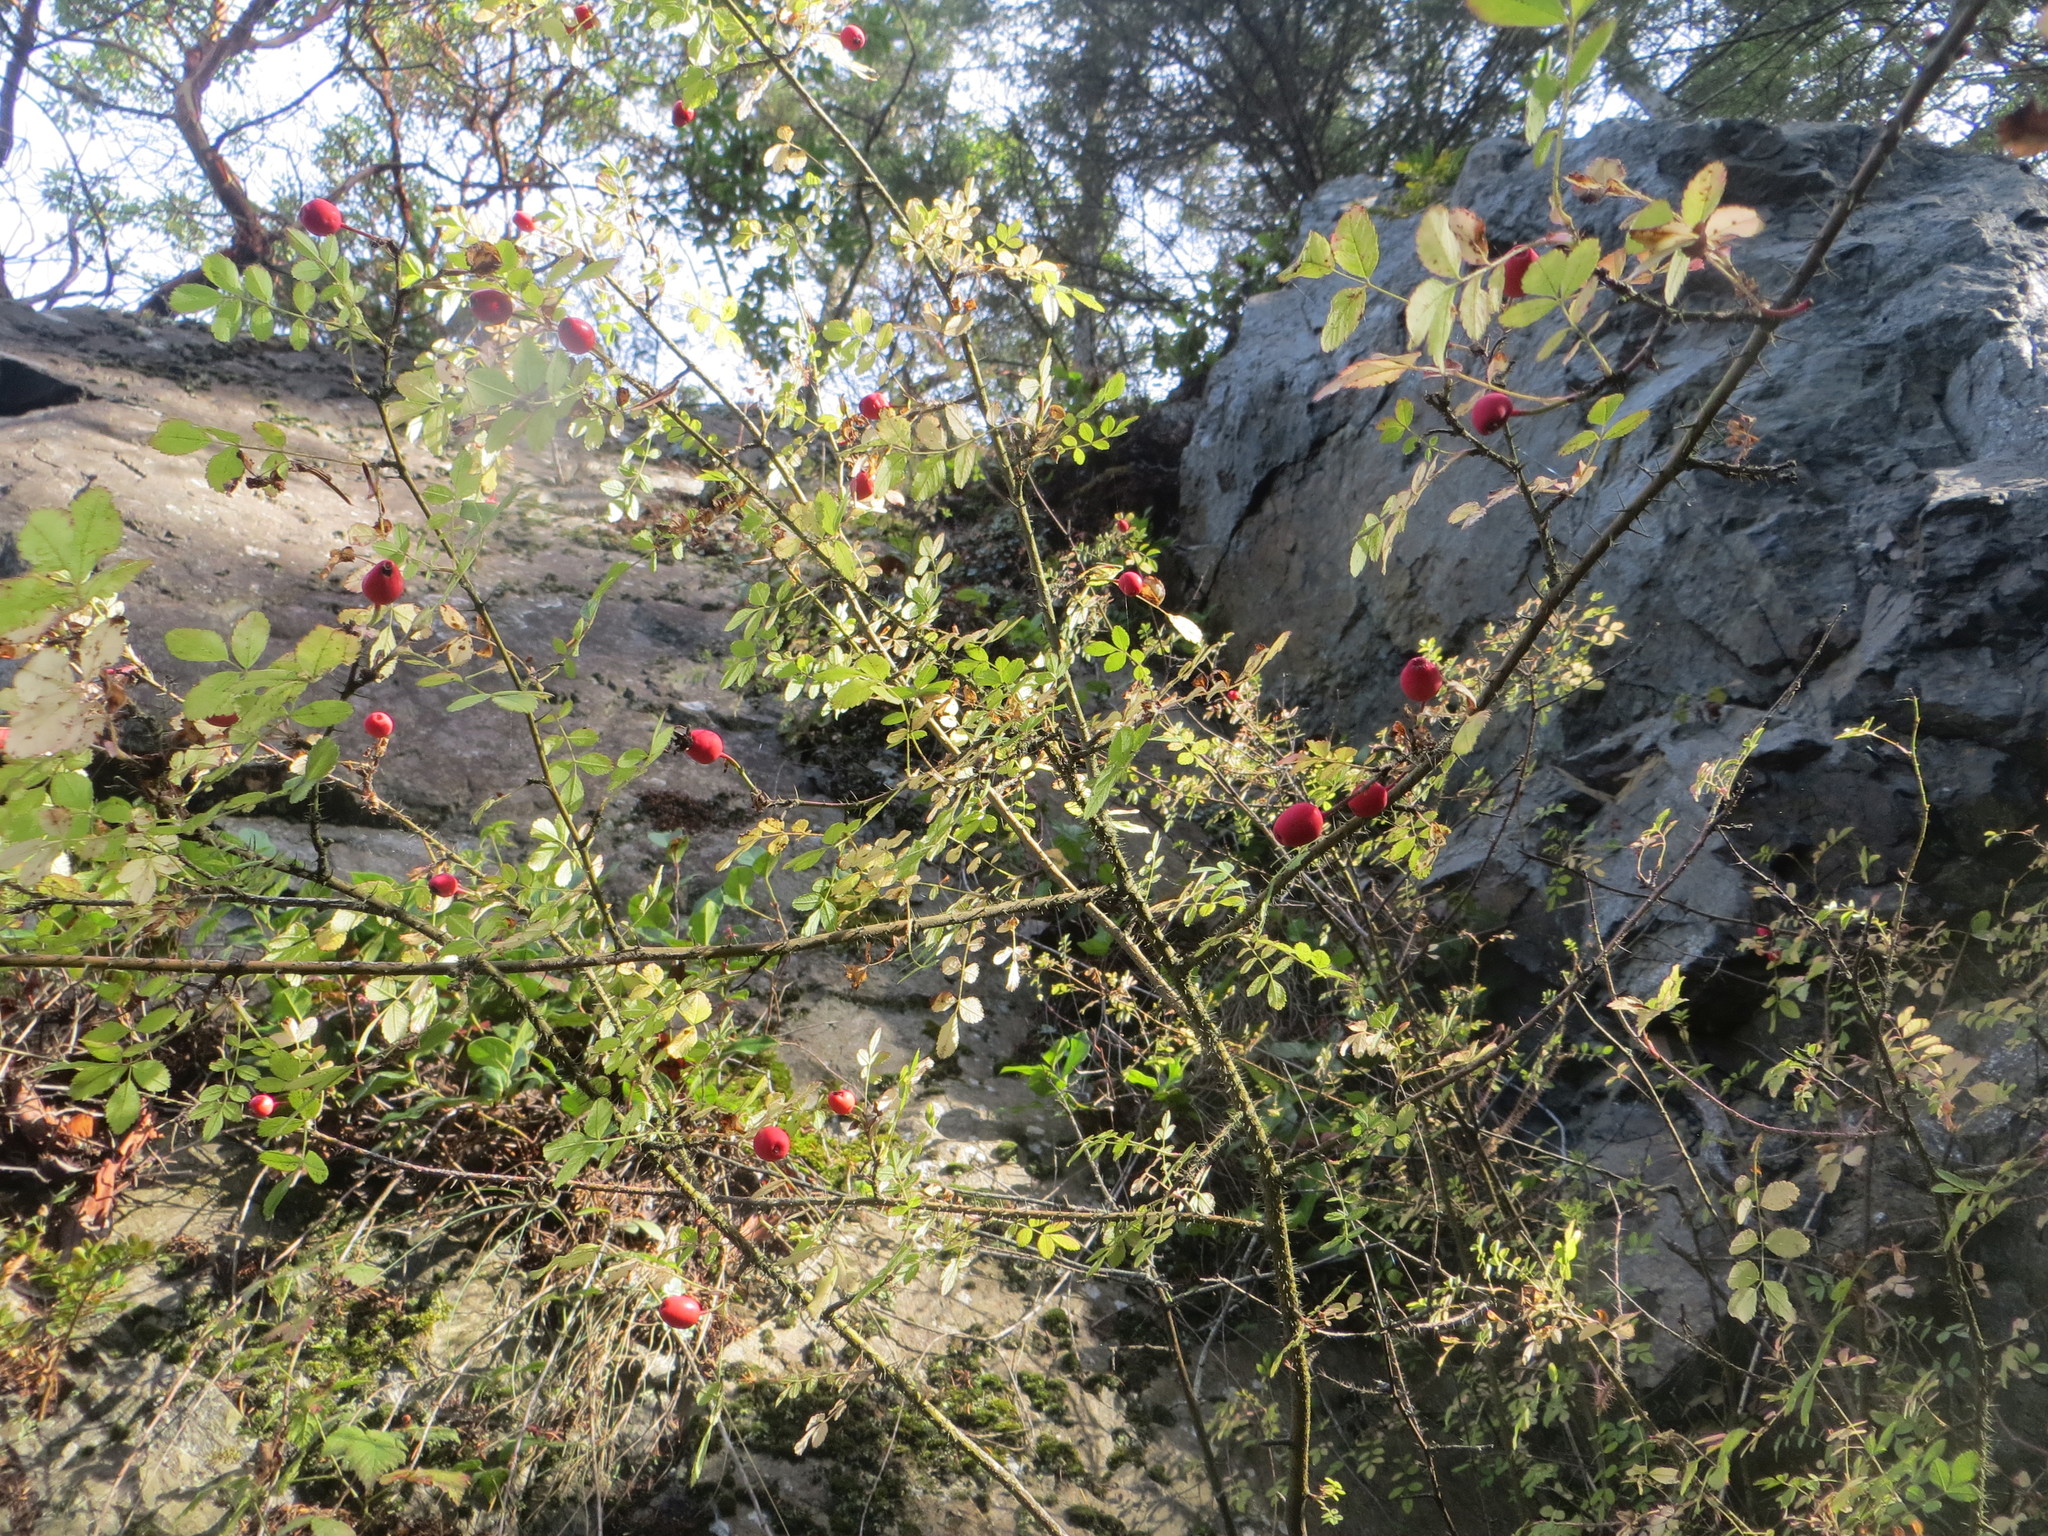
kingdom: Plantae
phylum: Tracheophyta
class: Magnoliopsida
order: Rosales
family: Rosaceae
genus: Rosa
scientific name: Rosa gymnocarpa
